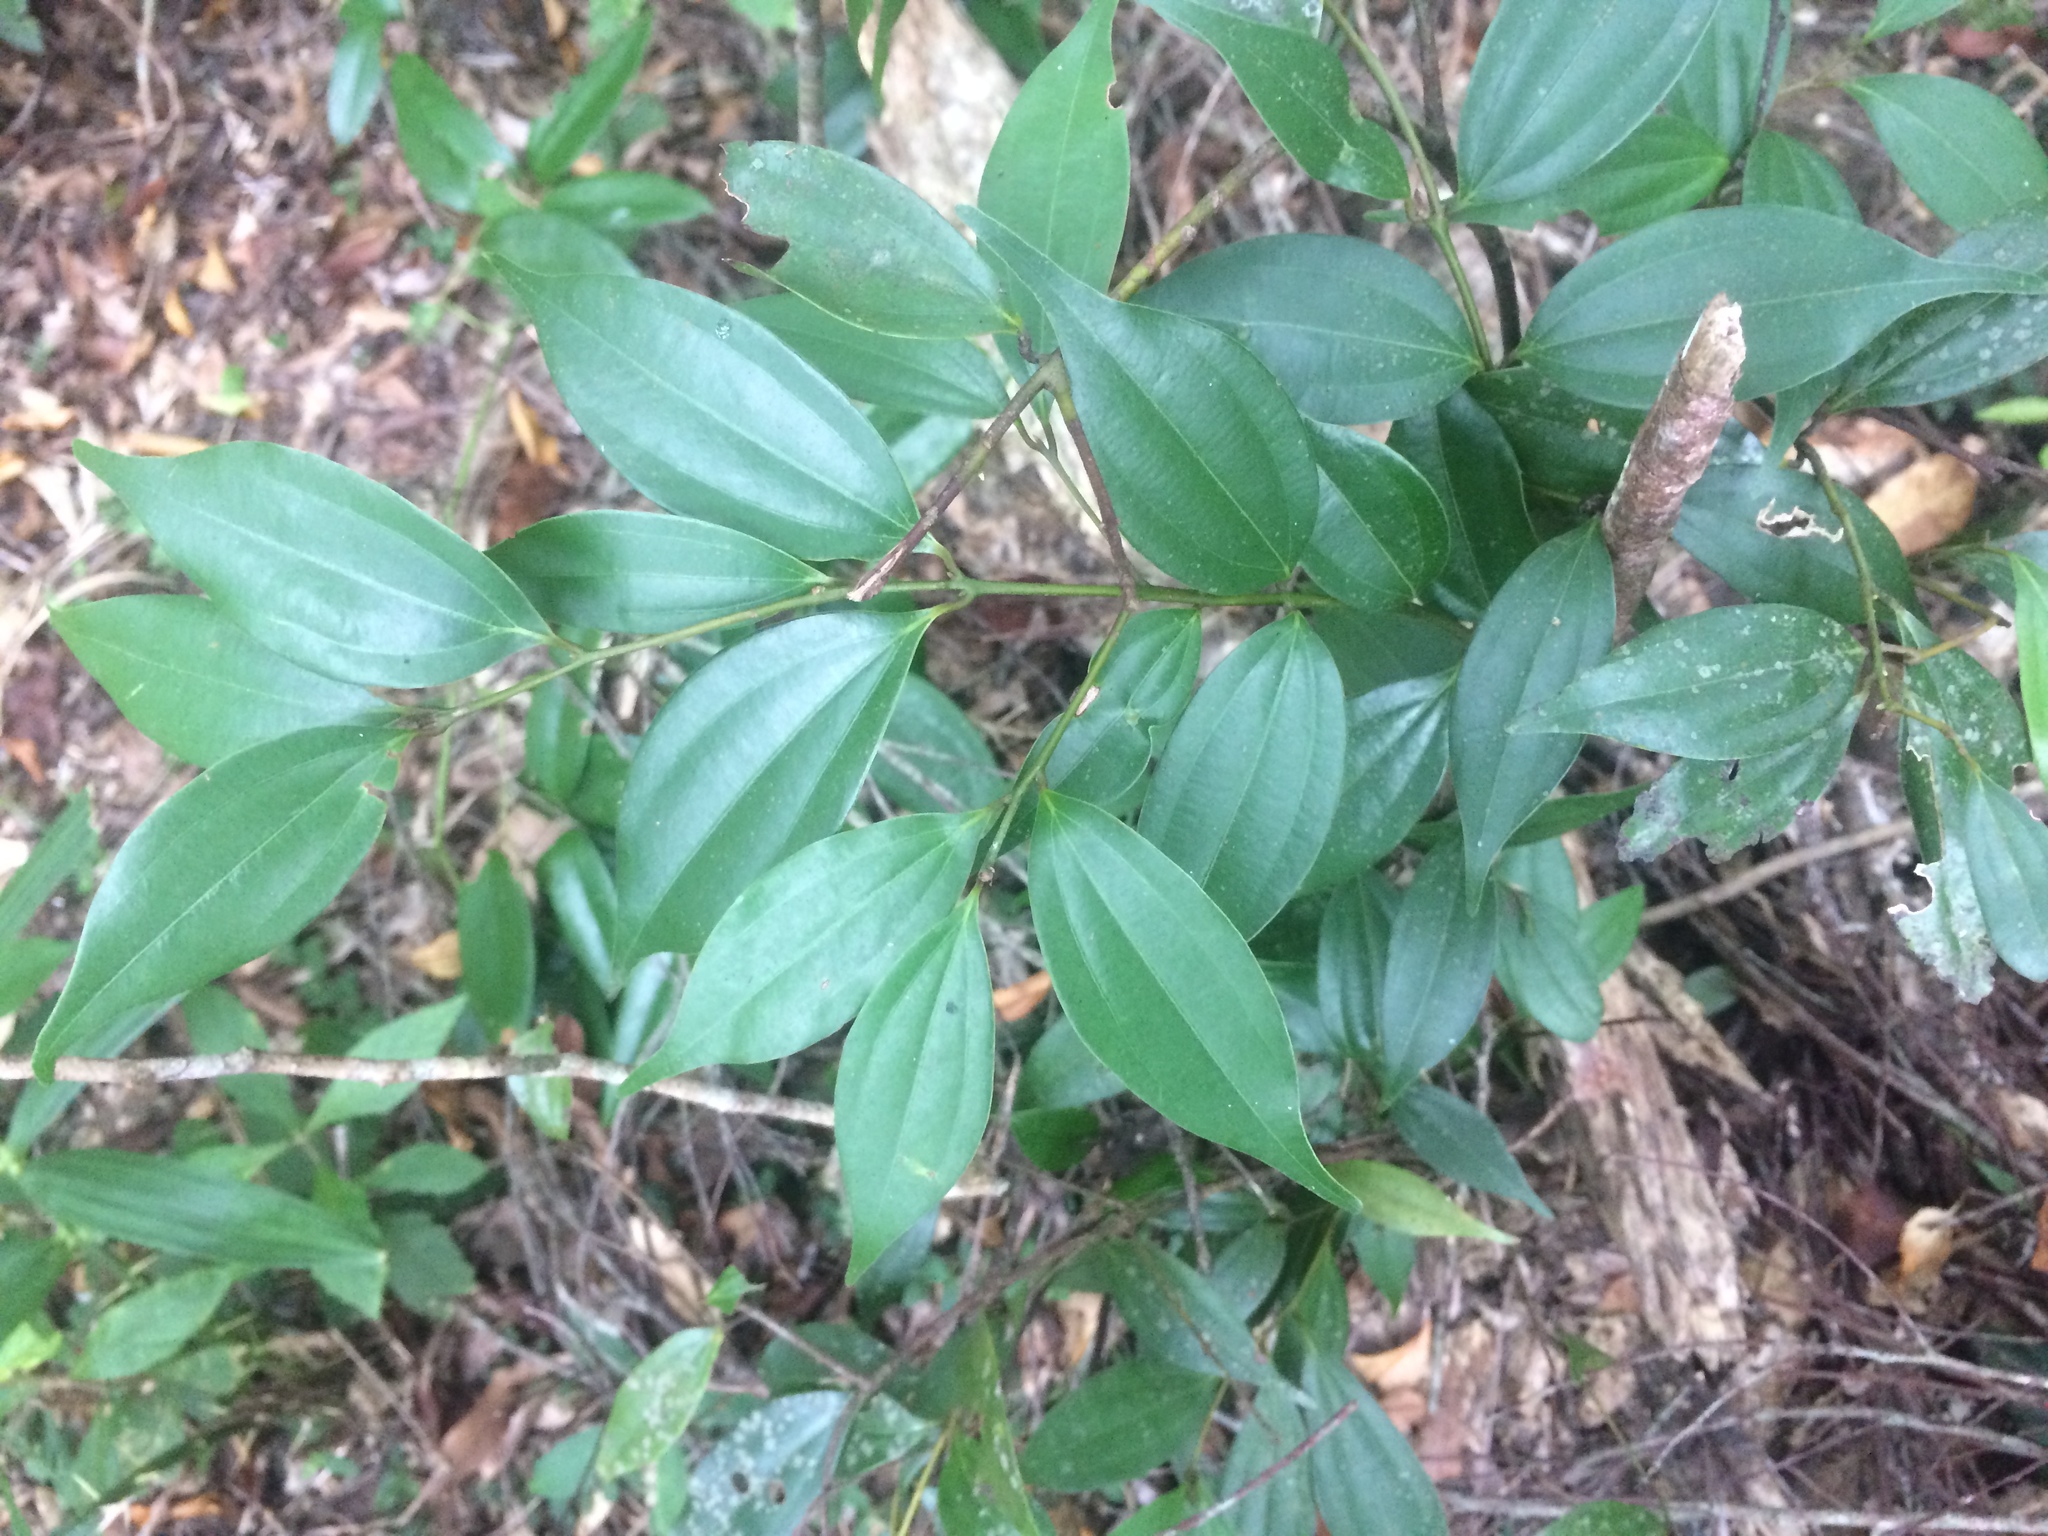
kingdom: Plantae
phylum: Tracheophyta
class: Magnoliopsida
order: Laurales
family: Lauraceae
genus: Cinnamomum
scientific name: Cinnamomum subavenium
